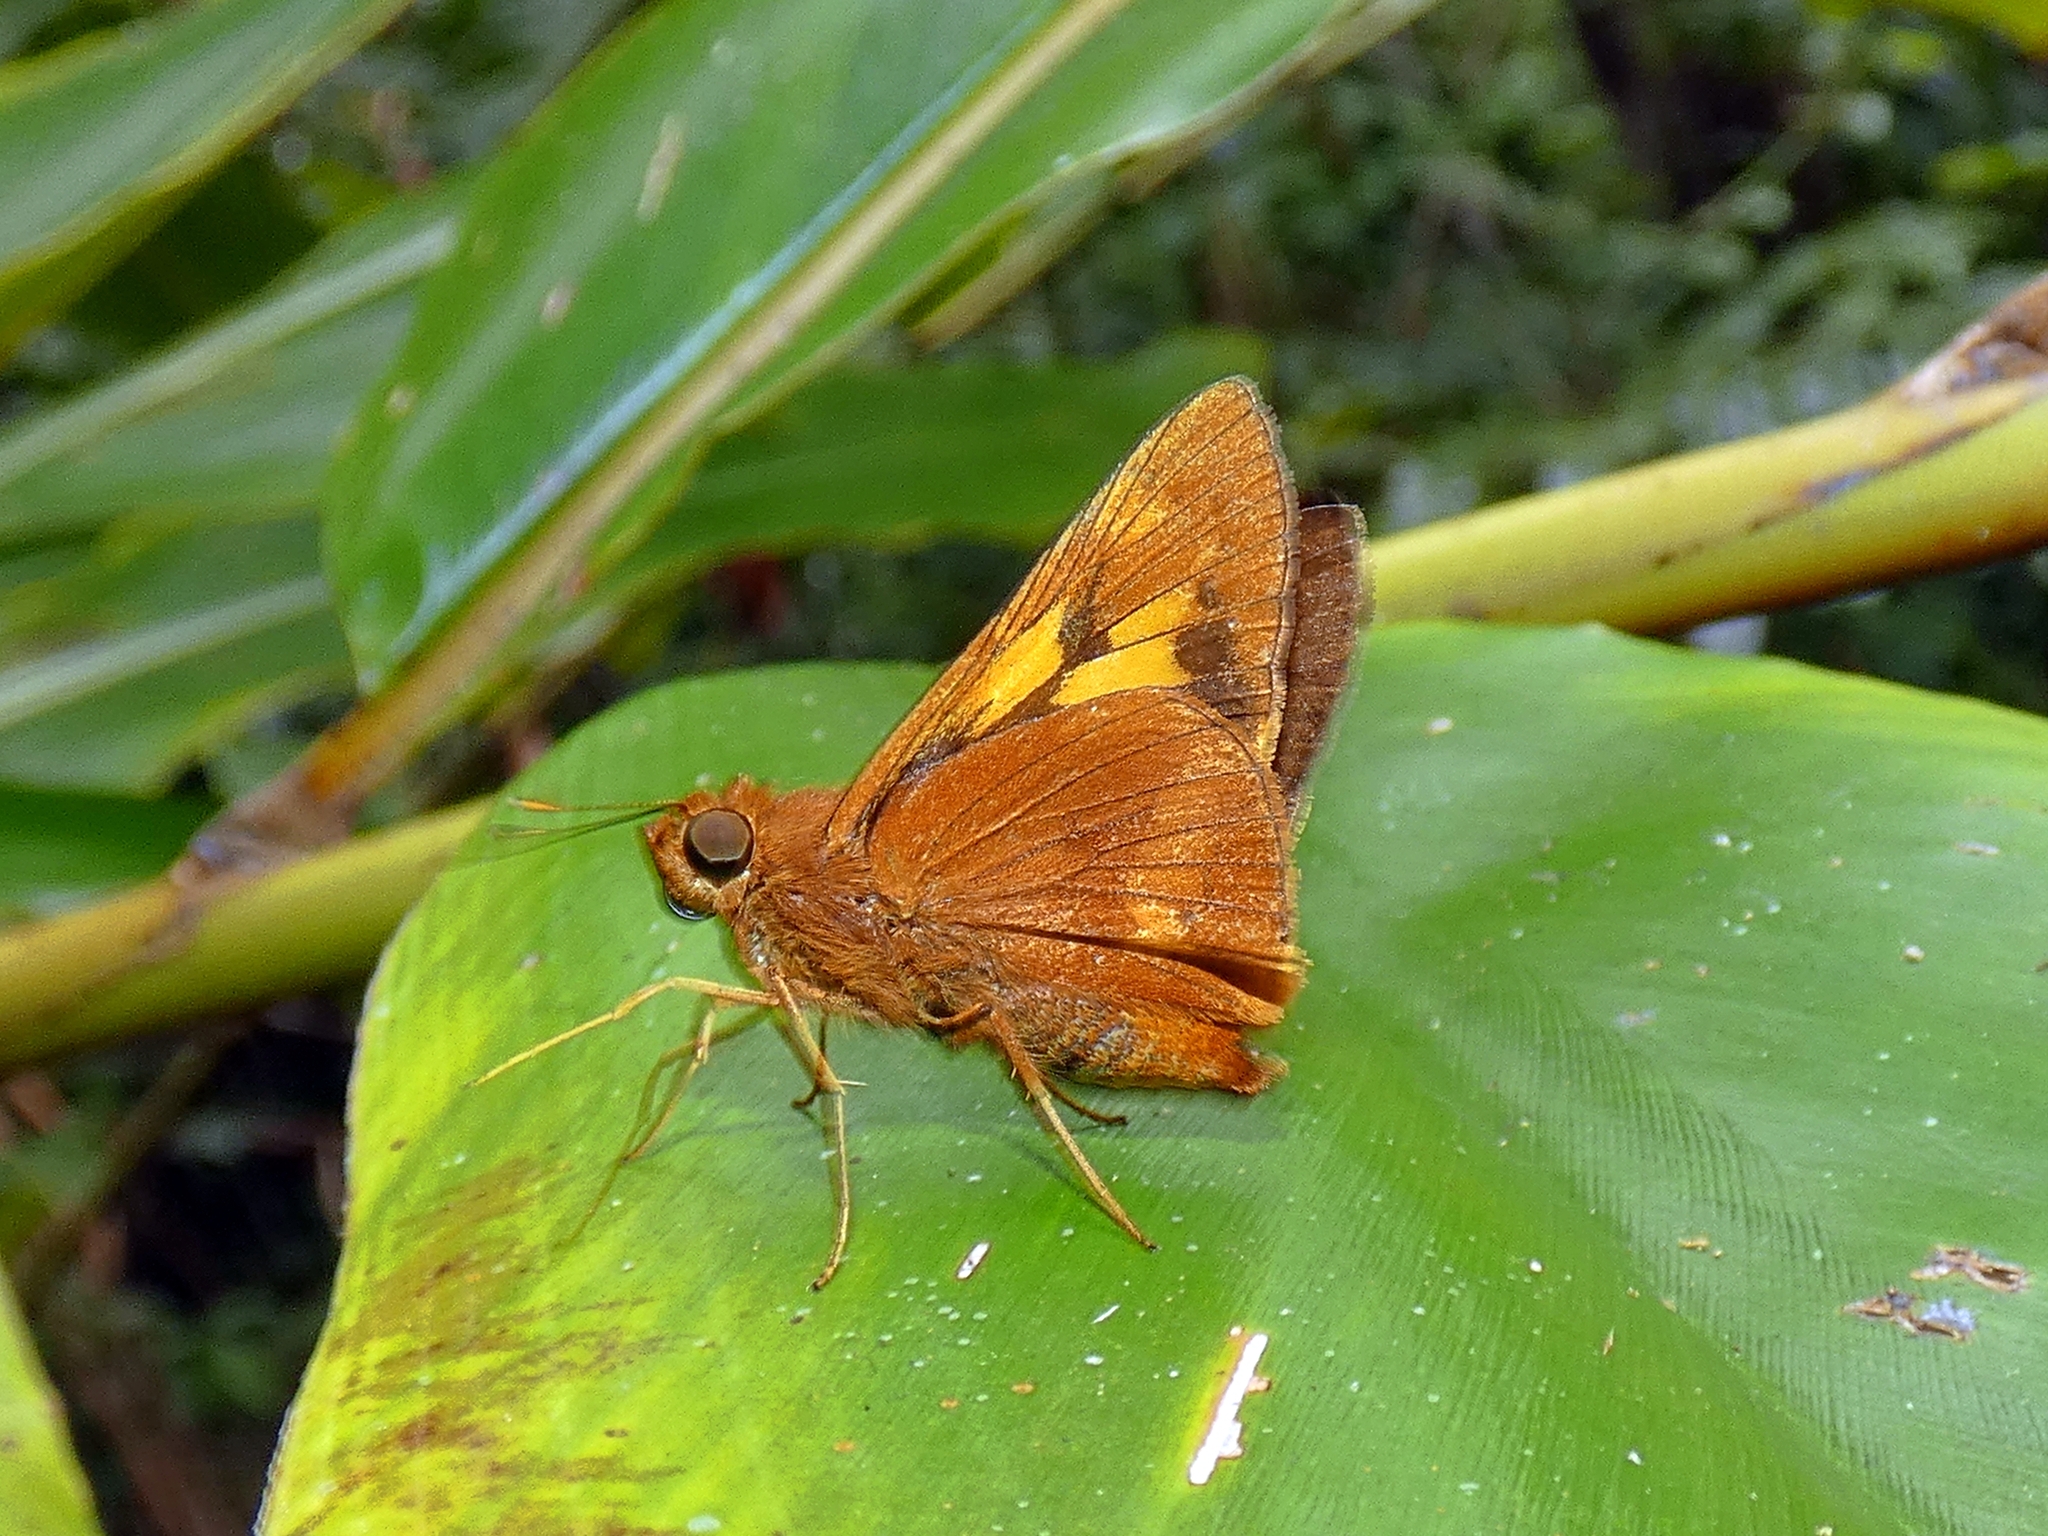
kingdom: Animalia
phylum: Arthropoda
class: Insecta
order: Lepidoptera
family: Hesperiidae
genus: Cephrenes
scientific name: Cephrenes augiades
